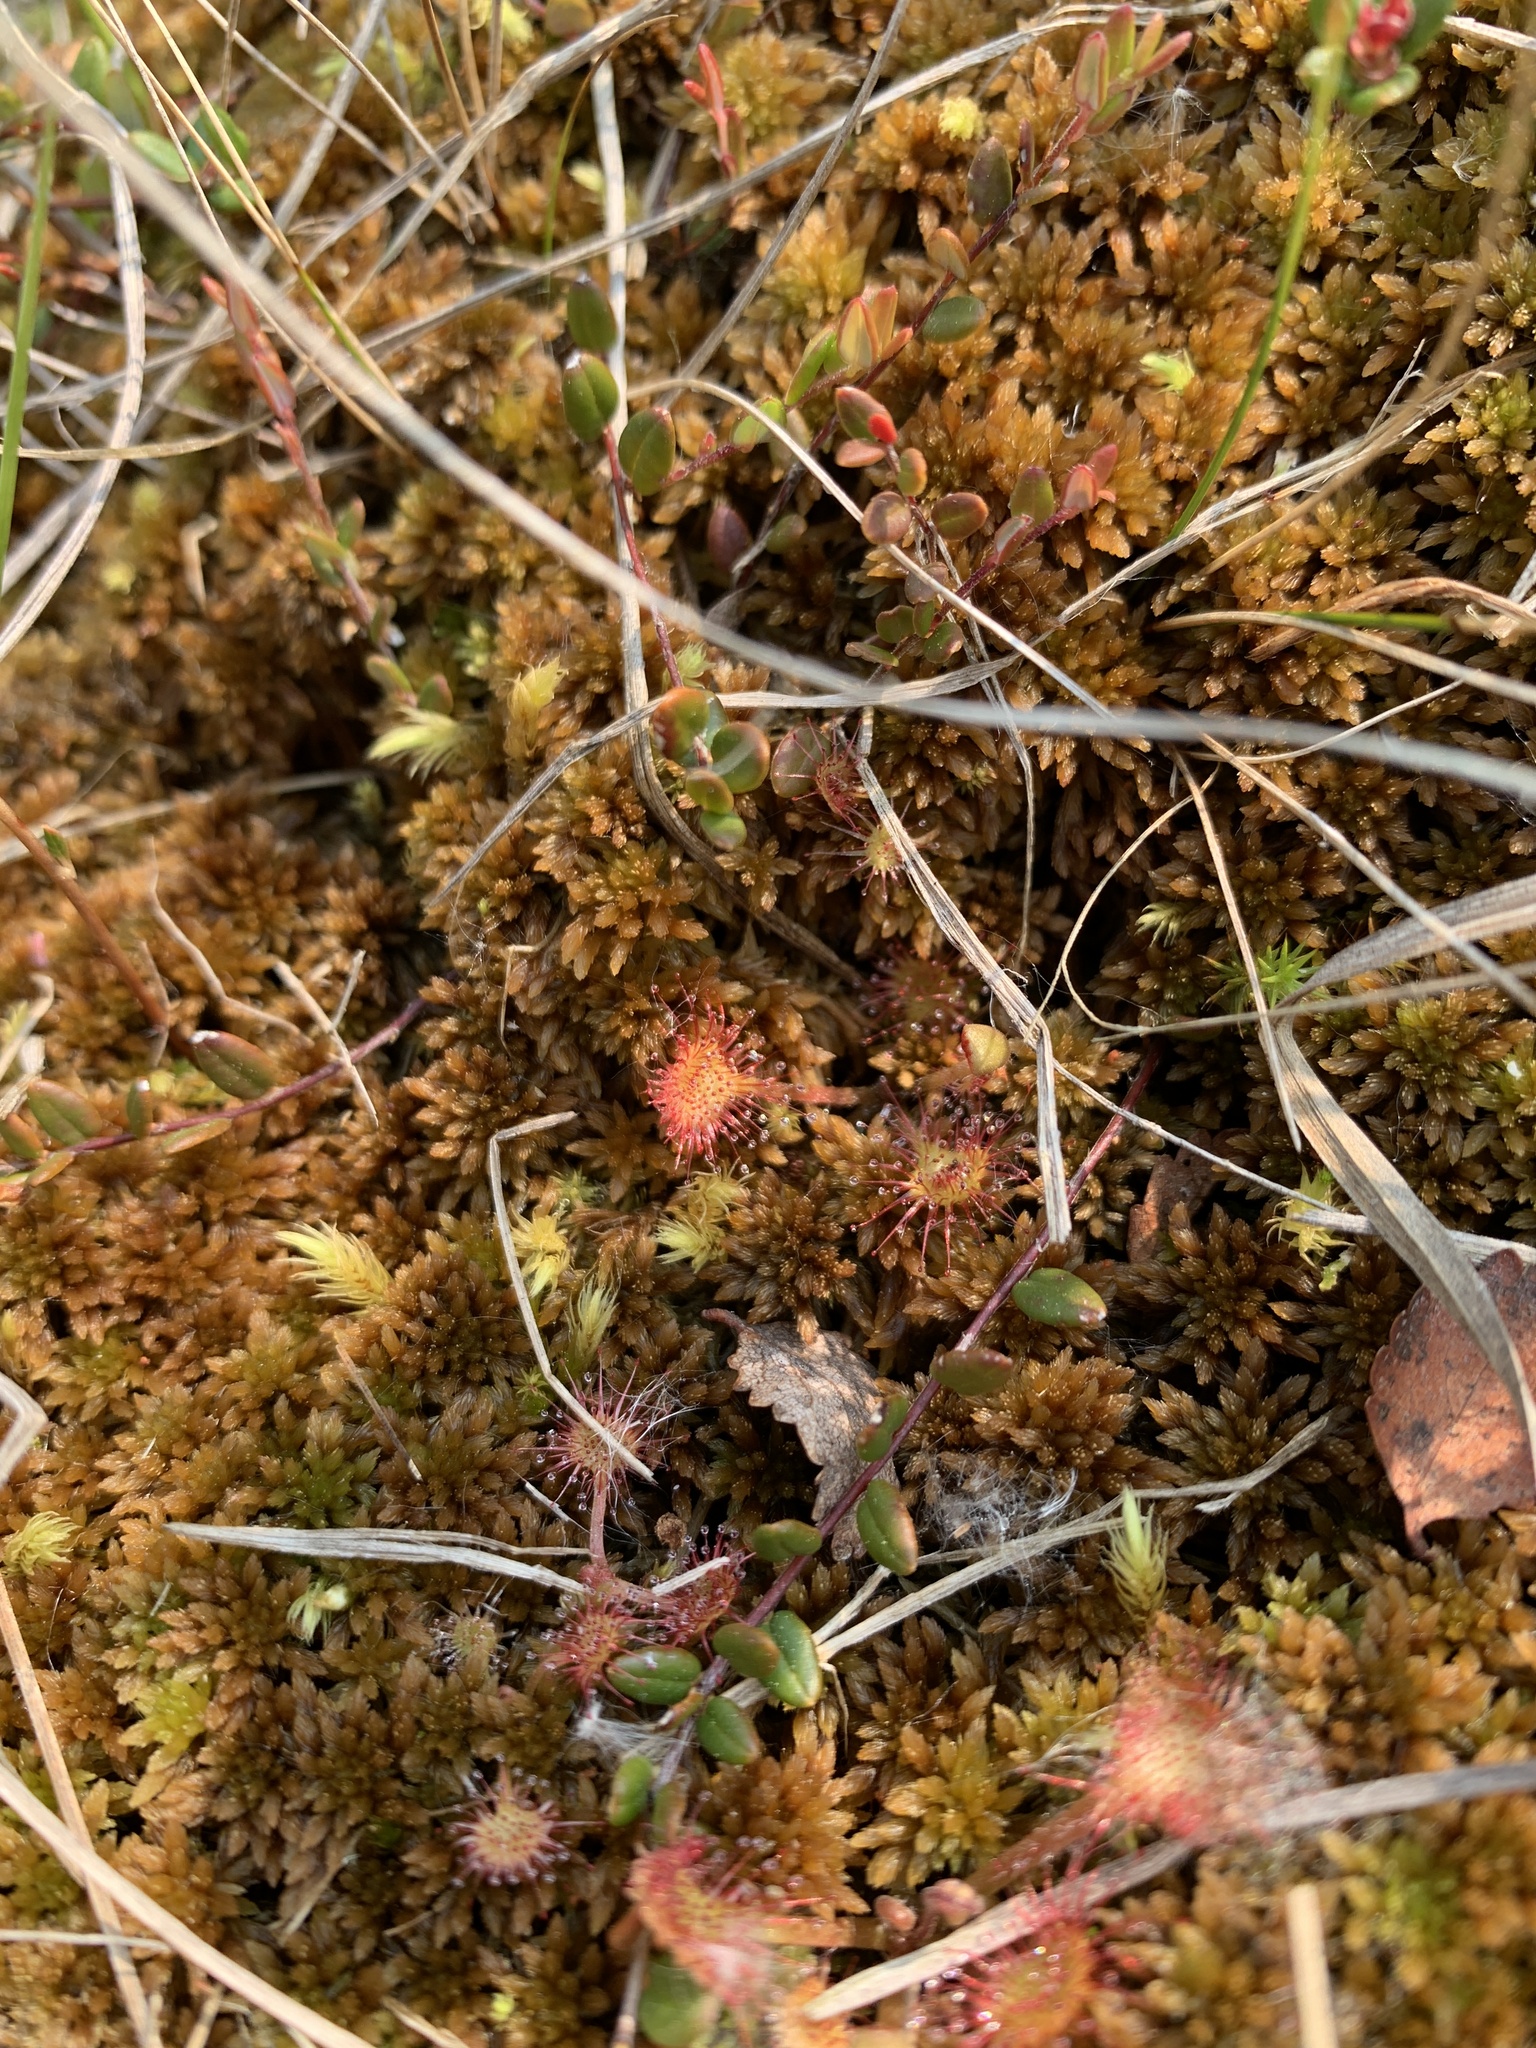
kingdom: Plantae
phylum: Tracheophyta
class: Magnoliopsida
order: Caryophyllales
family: Droseraceae
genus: Drosera
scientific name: Drosera rotundifolia
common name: Round-leaved sundew
